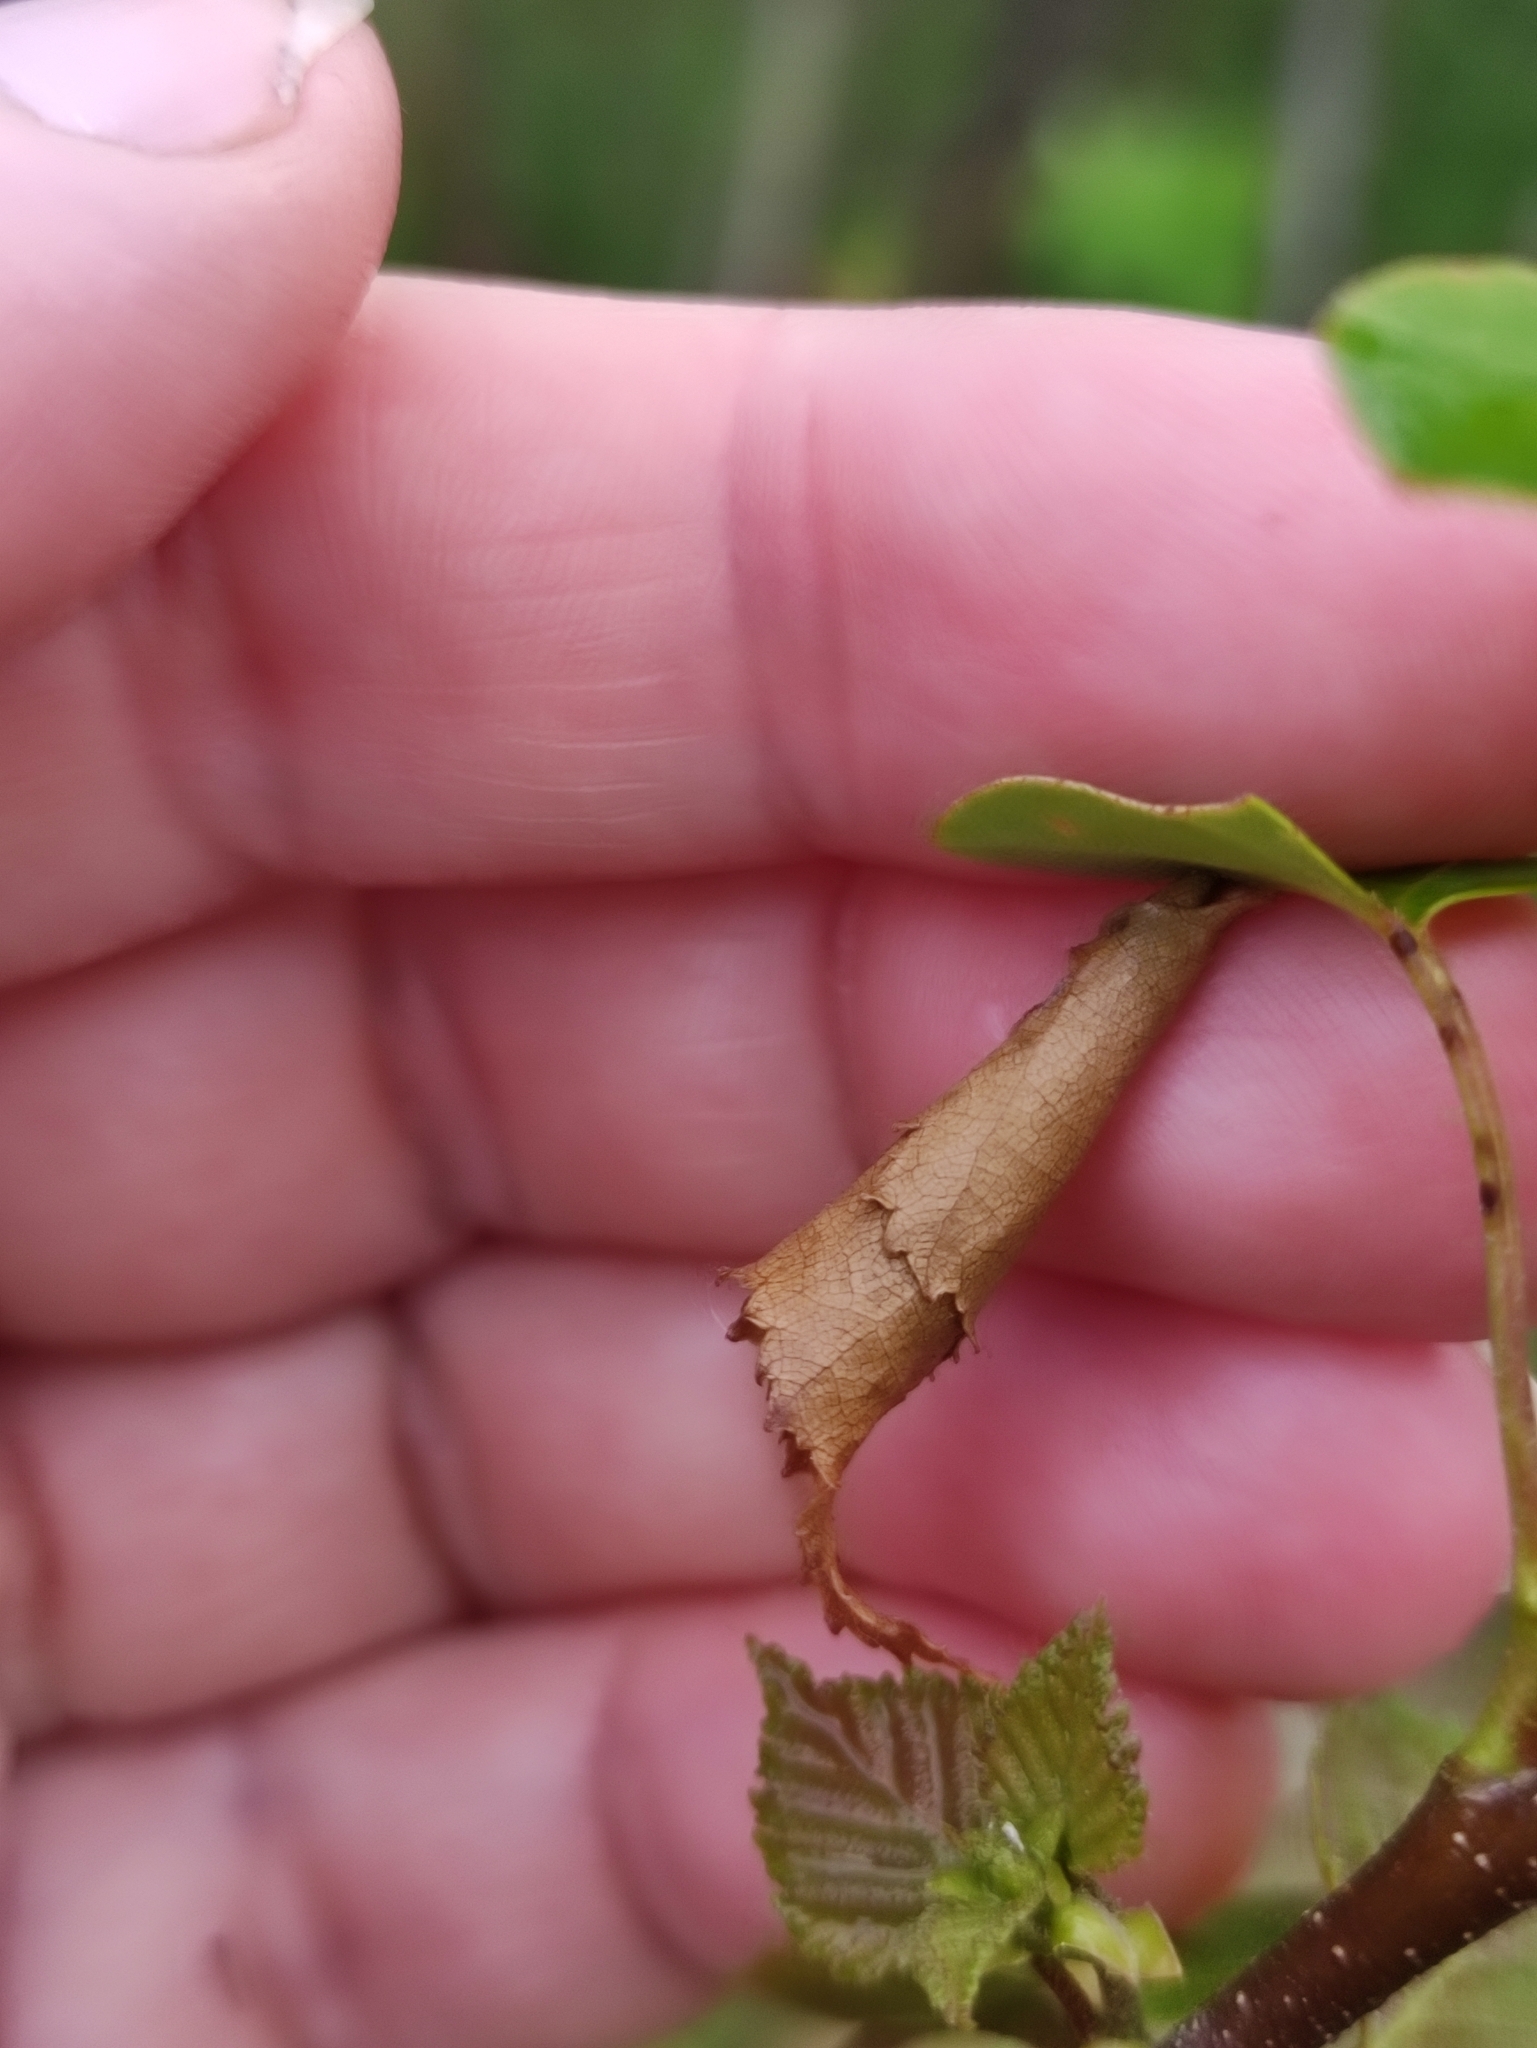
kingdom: Animalia
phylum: Arthropoda
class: Insecta
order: Coleoptera
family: Attelabidae
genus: Deporaus
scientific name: Deporaus betulae
